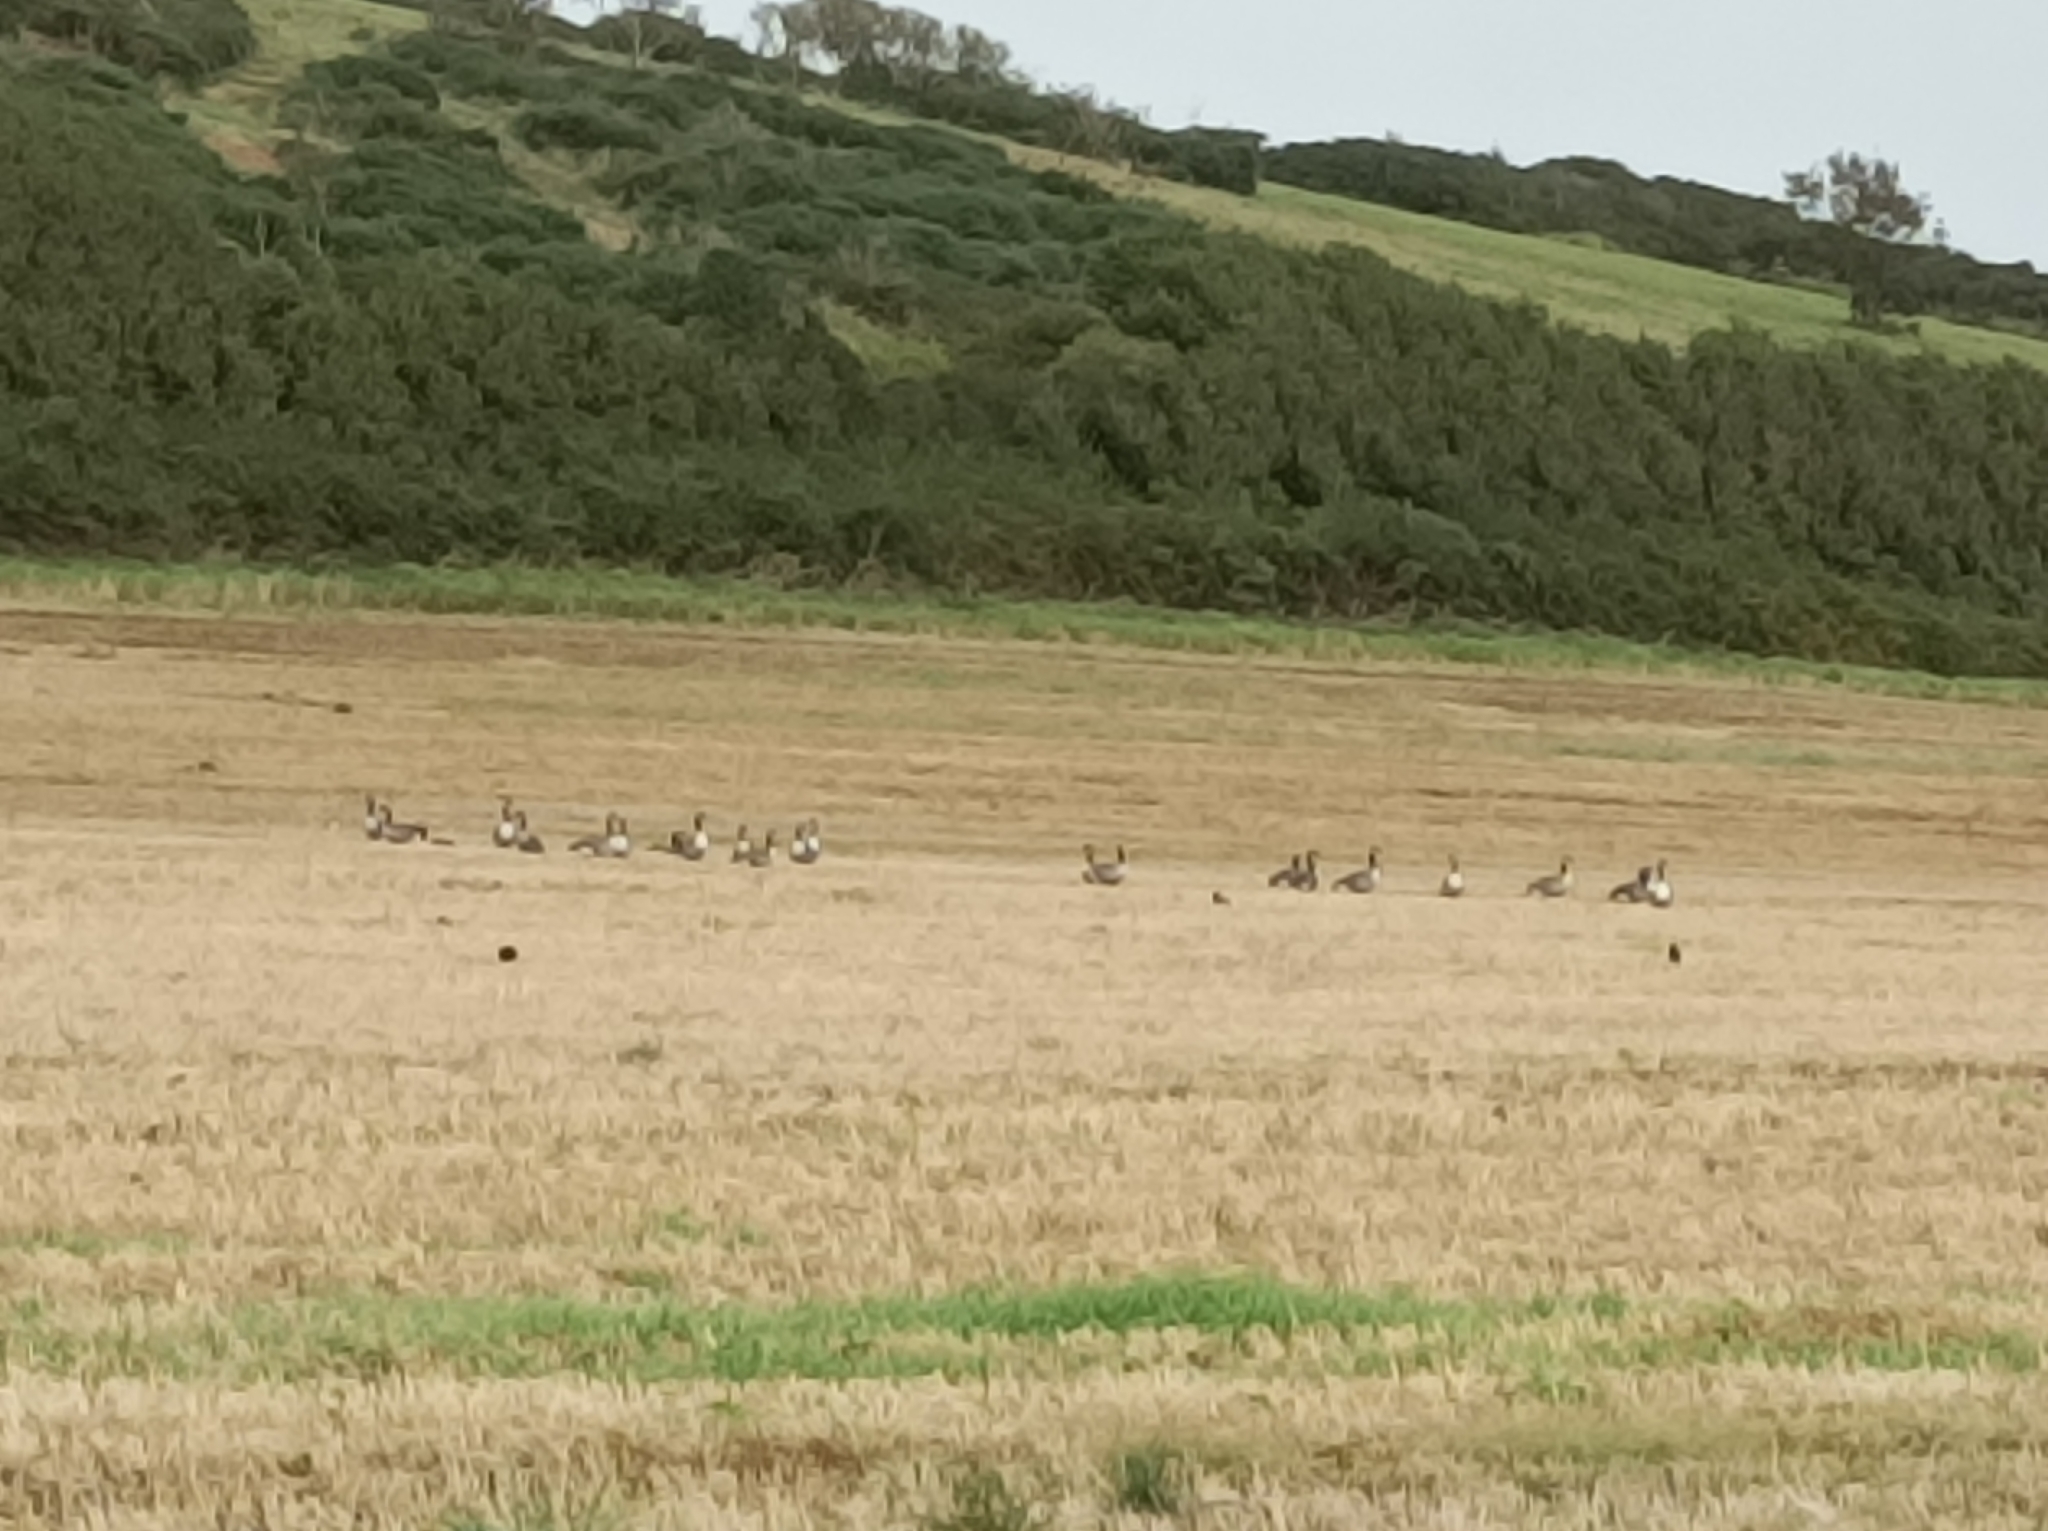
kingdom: Animalia
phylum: Chordata
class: Aves
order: Anseriformes
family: Anatidae
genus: Branta
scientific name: Branta canadensis
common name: Canada goose
